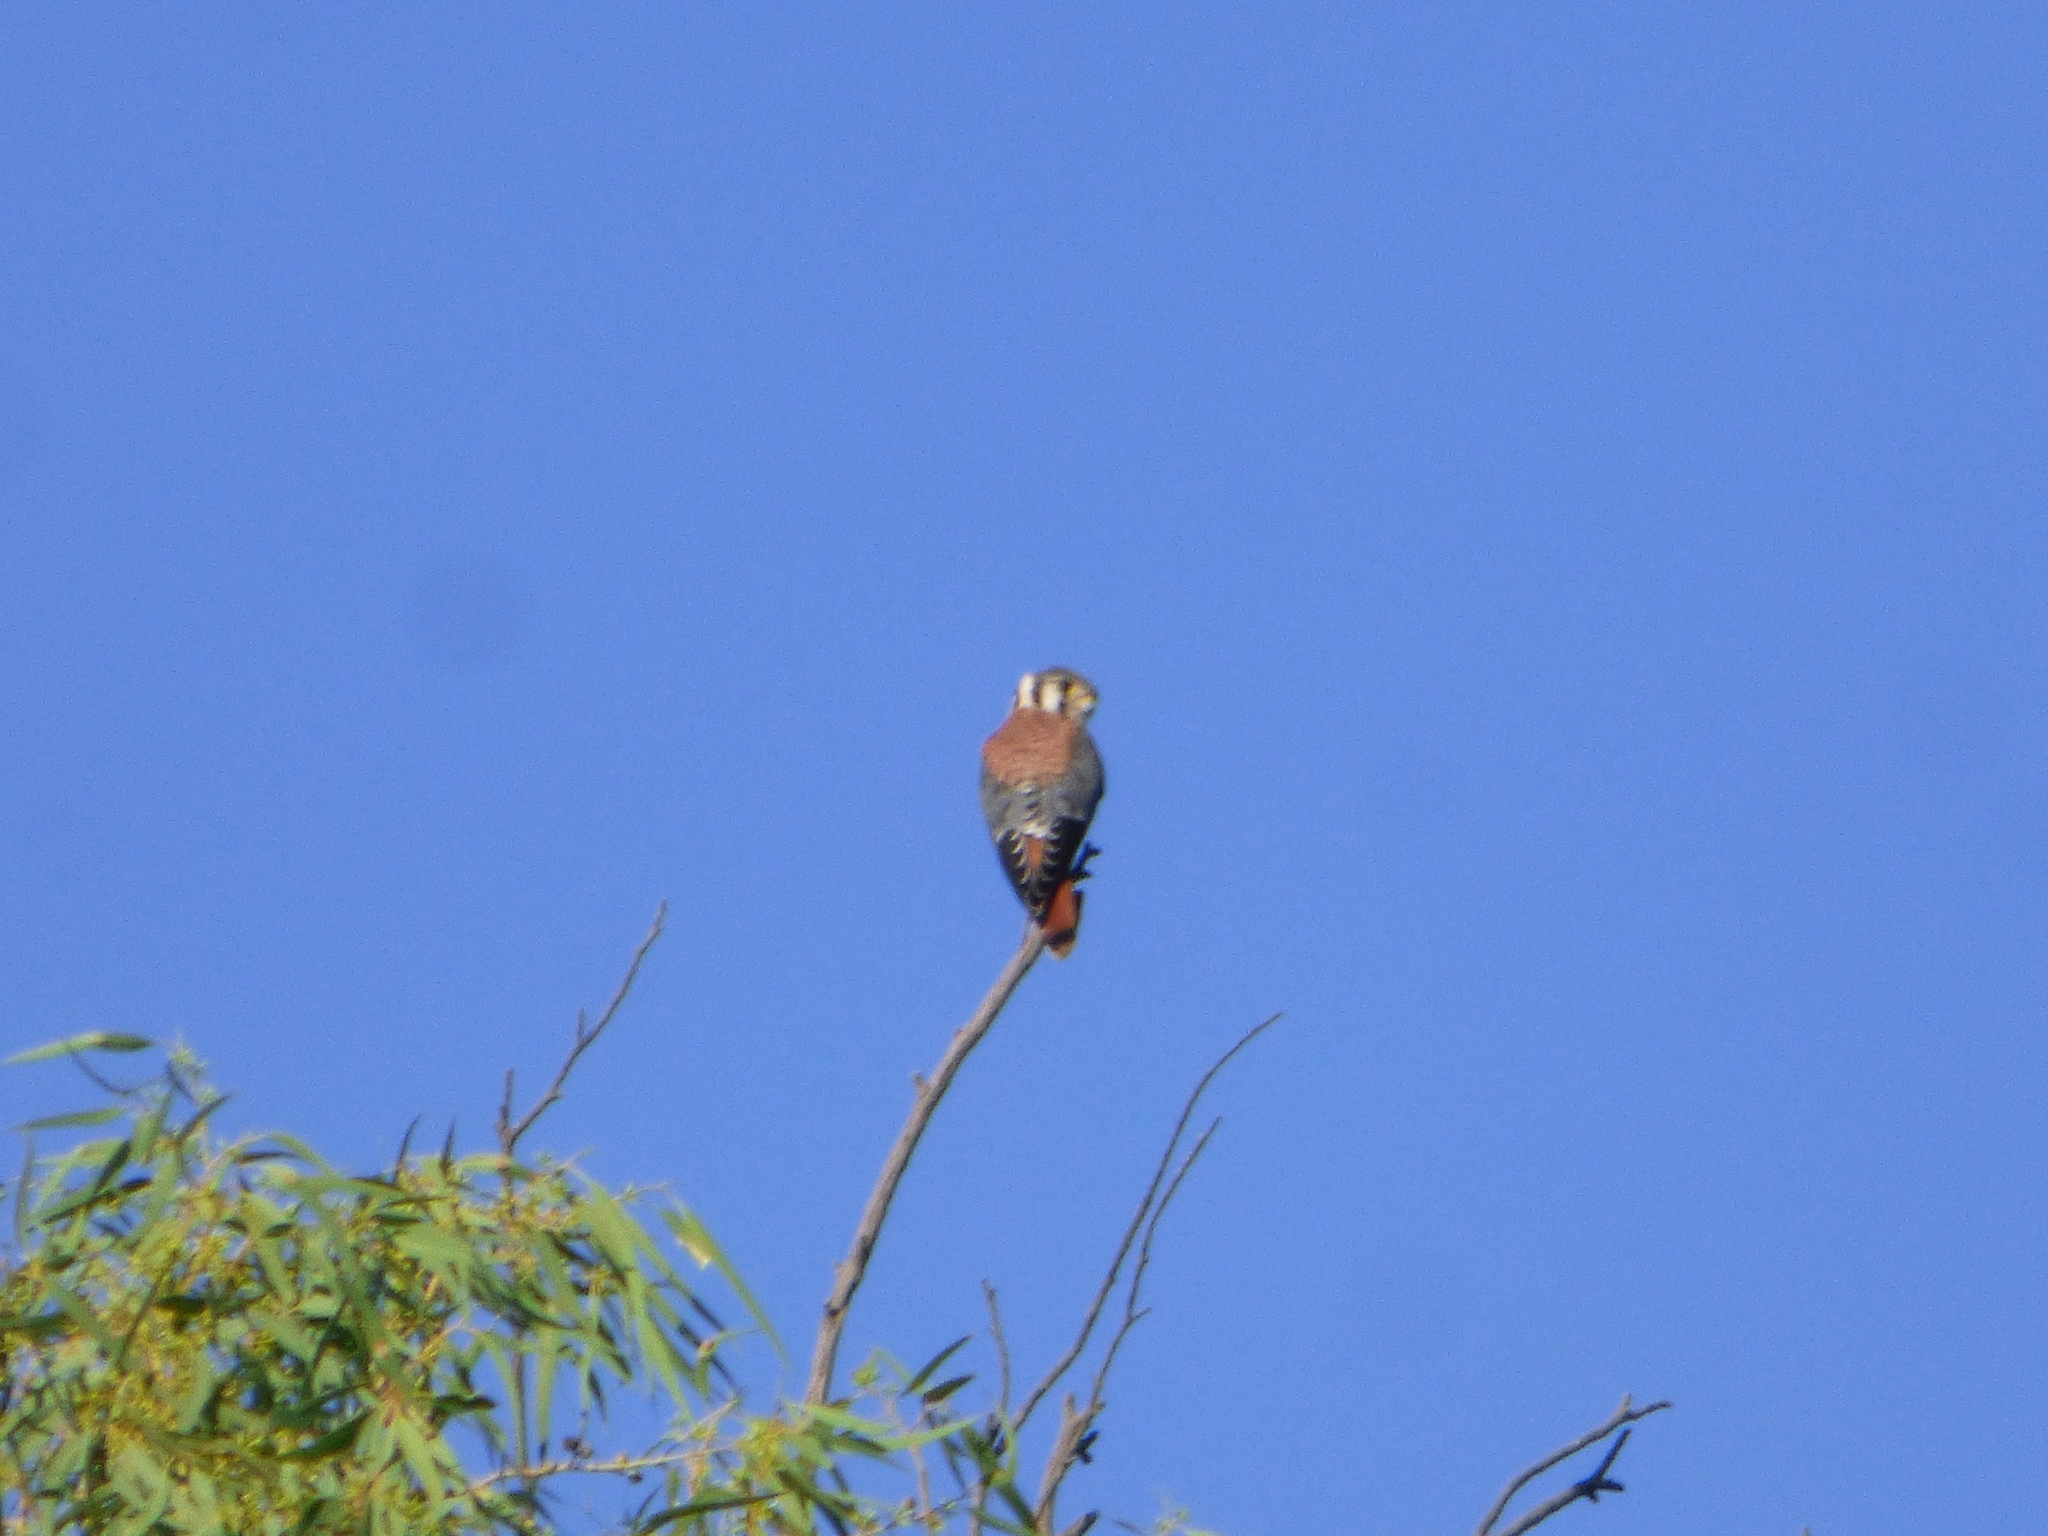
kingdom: Animalia
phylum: Chordata
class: Aves
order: Falconiformes
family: Falconidae
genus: Falco
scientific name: Falco sparverius
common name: American kestrel
